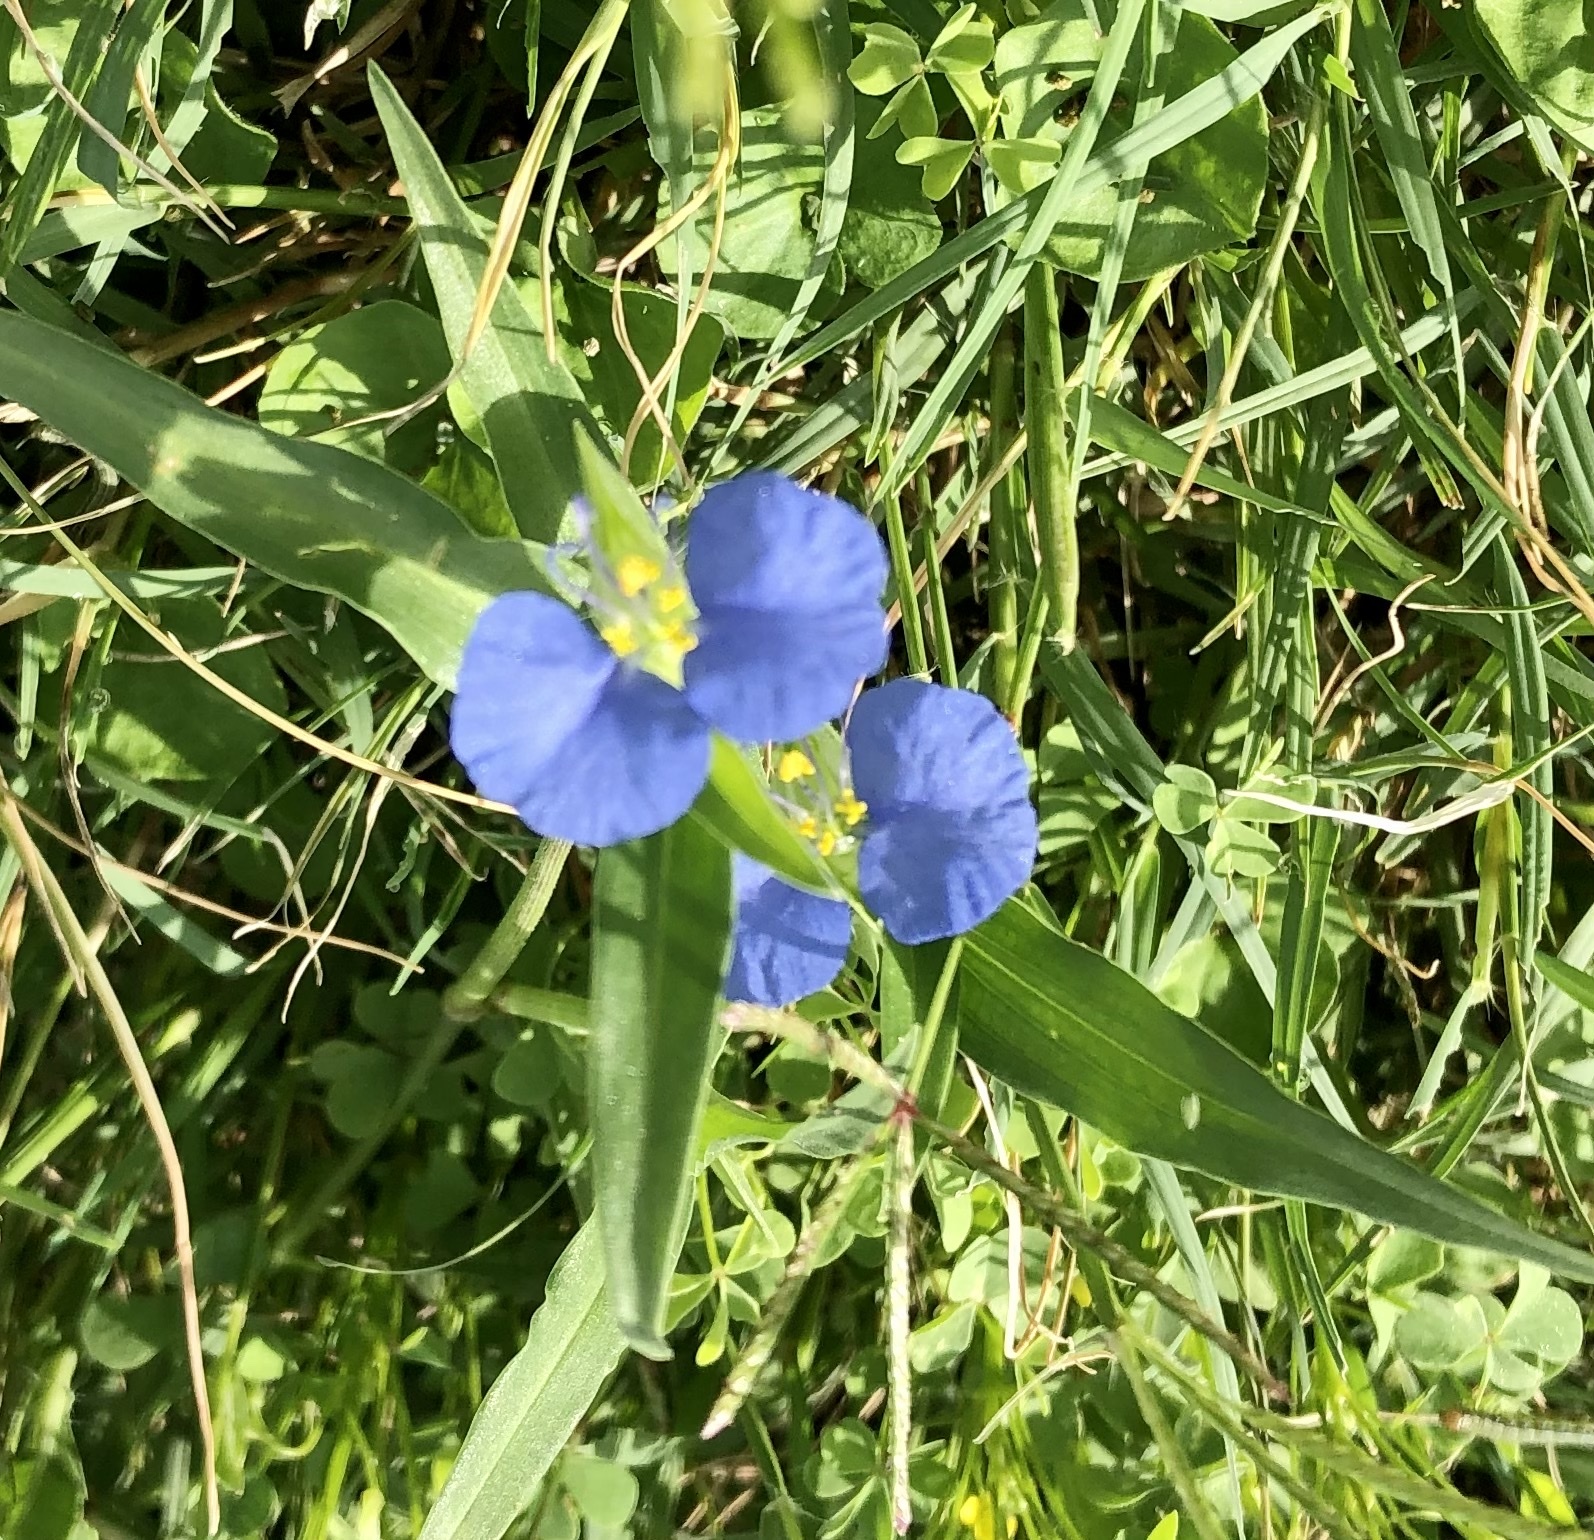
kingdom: Plantae
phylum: Tracheophyta
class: Liliopsida
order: Commelinales
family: Commelinaceae
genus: Commelina
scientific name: Commelina erecta
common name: Blousel blommetjie
